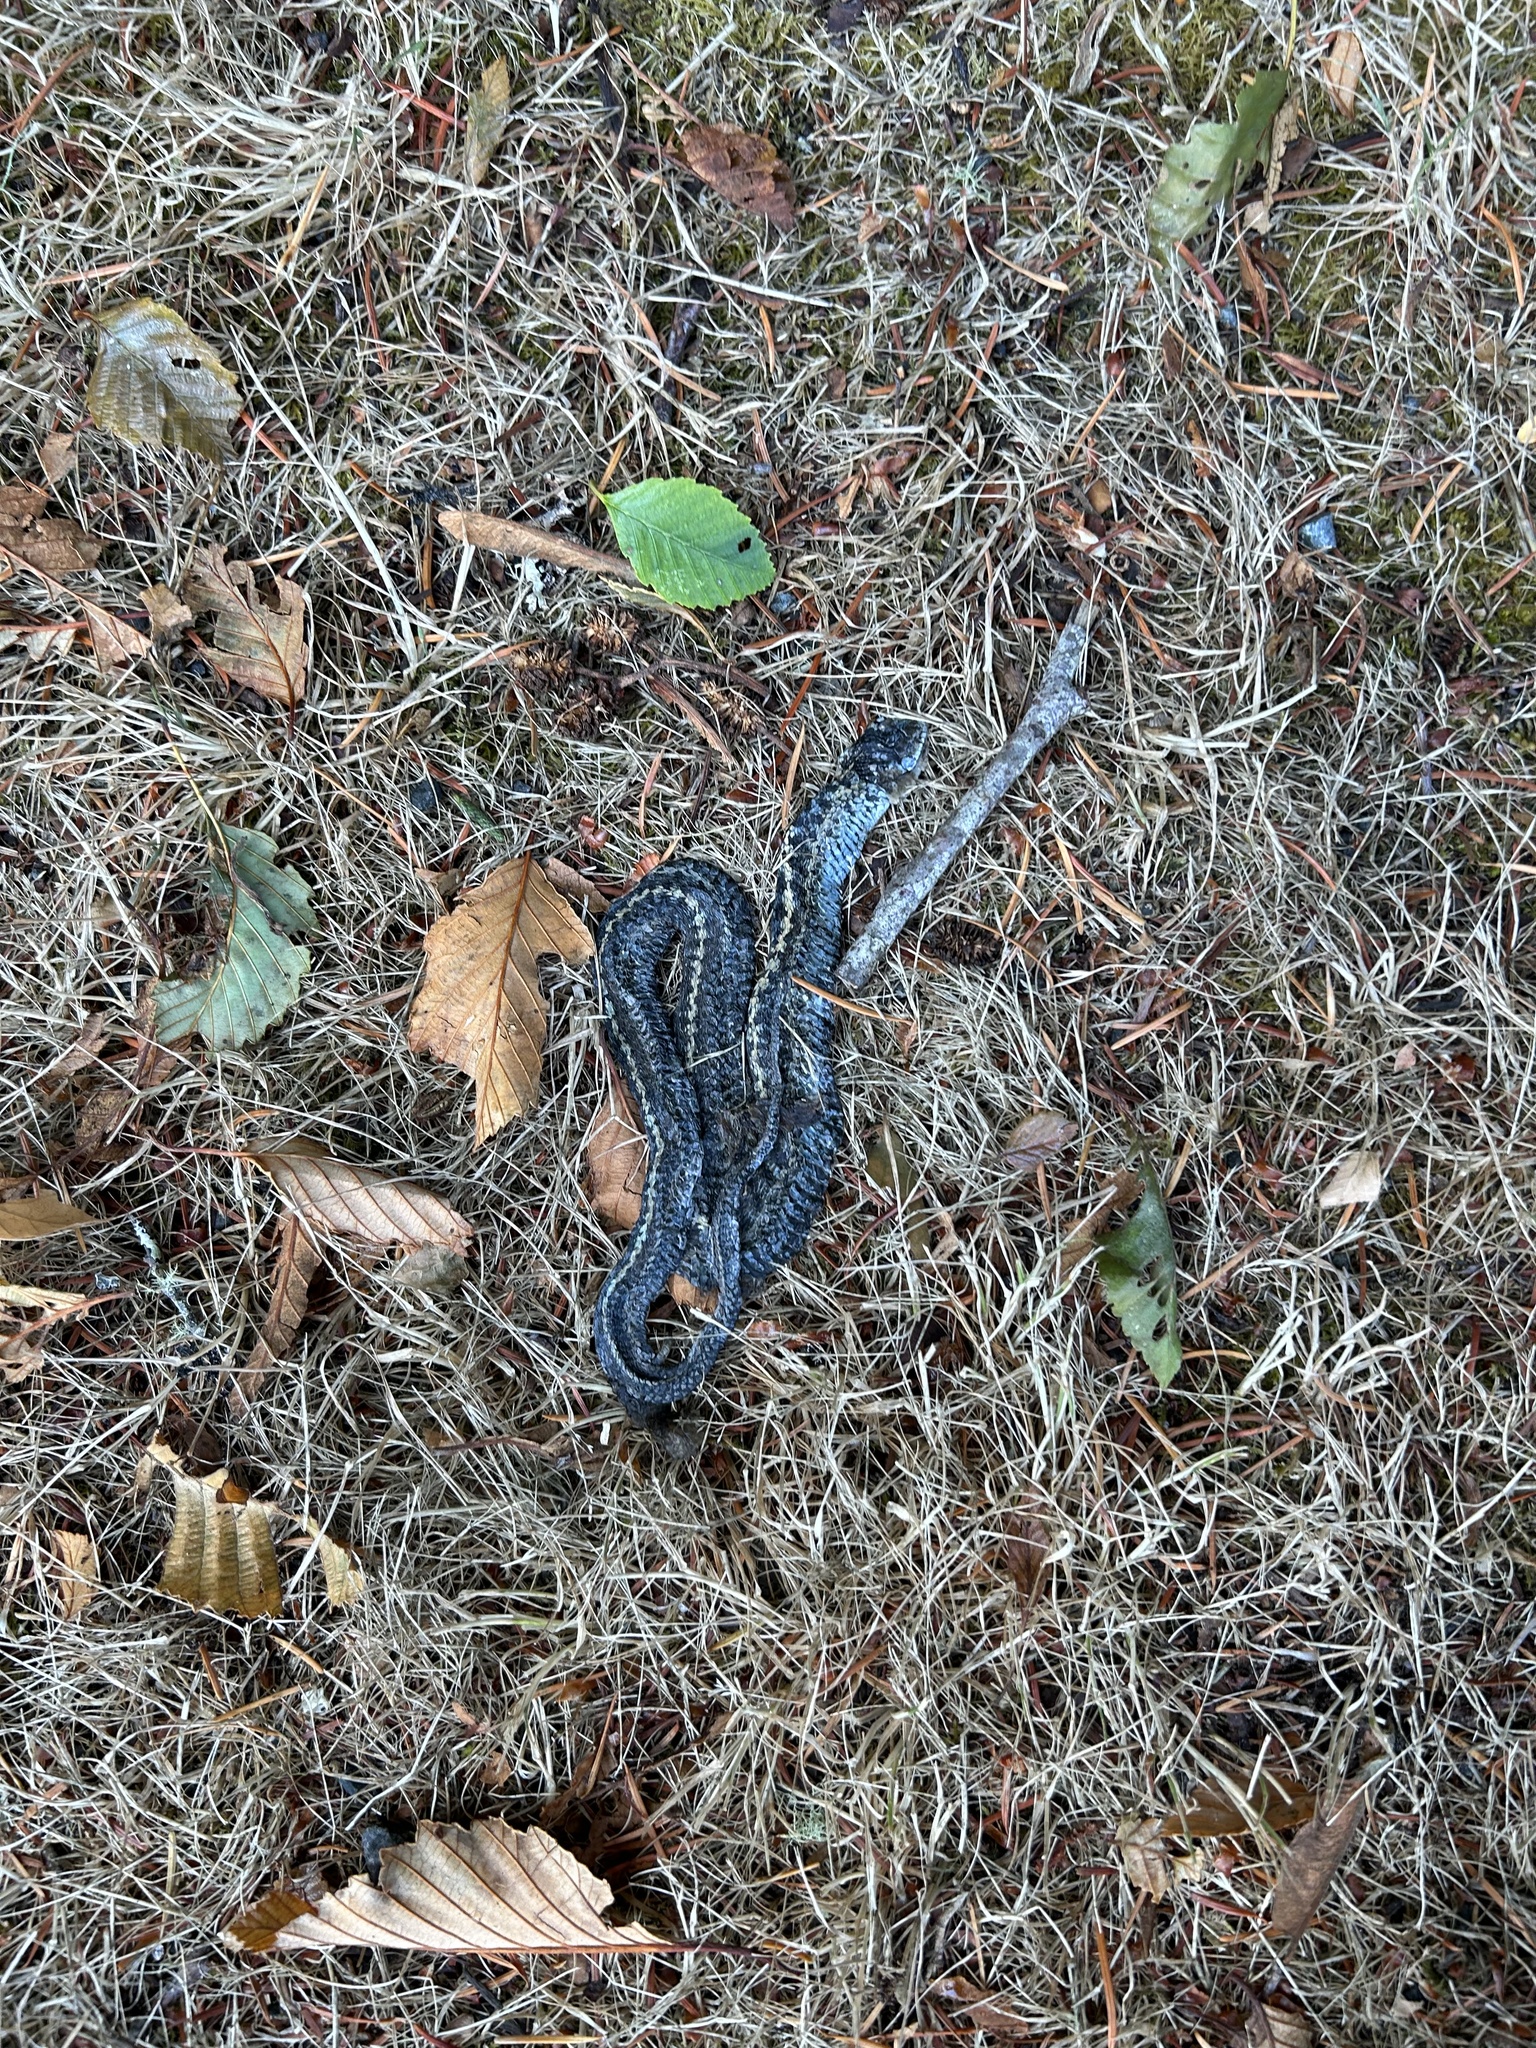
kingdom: Animalia
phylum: Chordata
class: Squamata
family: Colubridae
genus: Thamnophis
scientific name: Thamnophis elegans
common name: Western terrestrial garter snake
